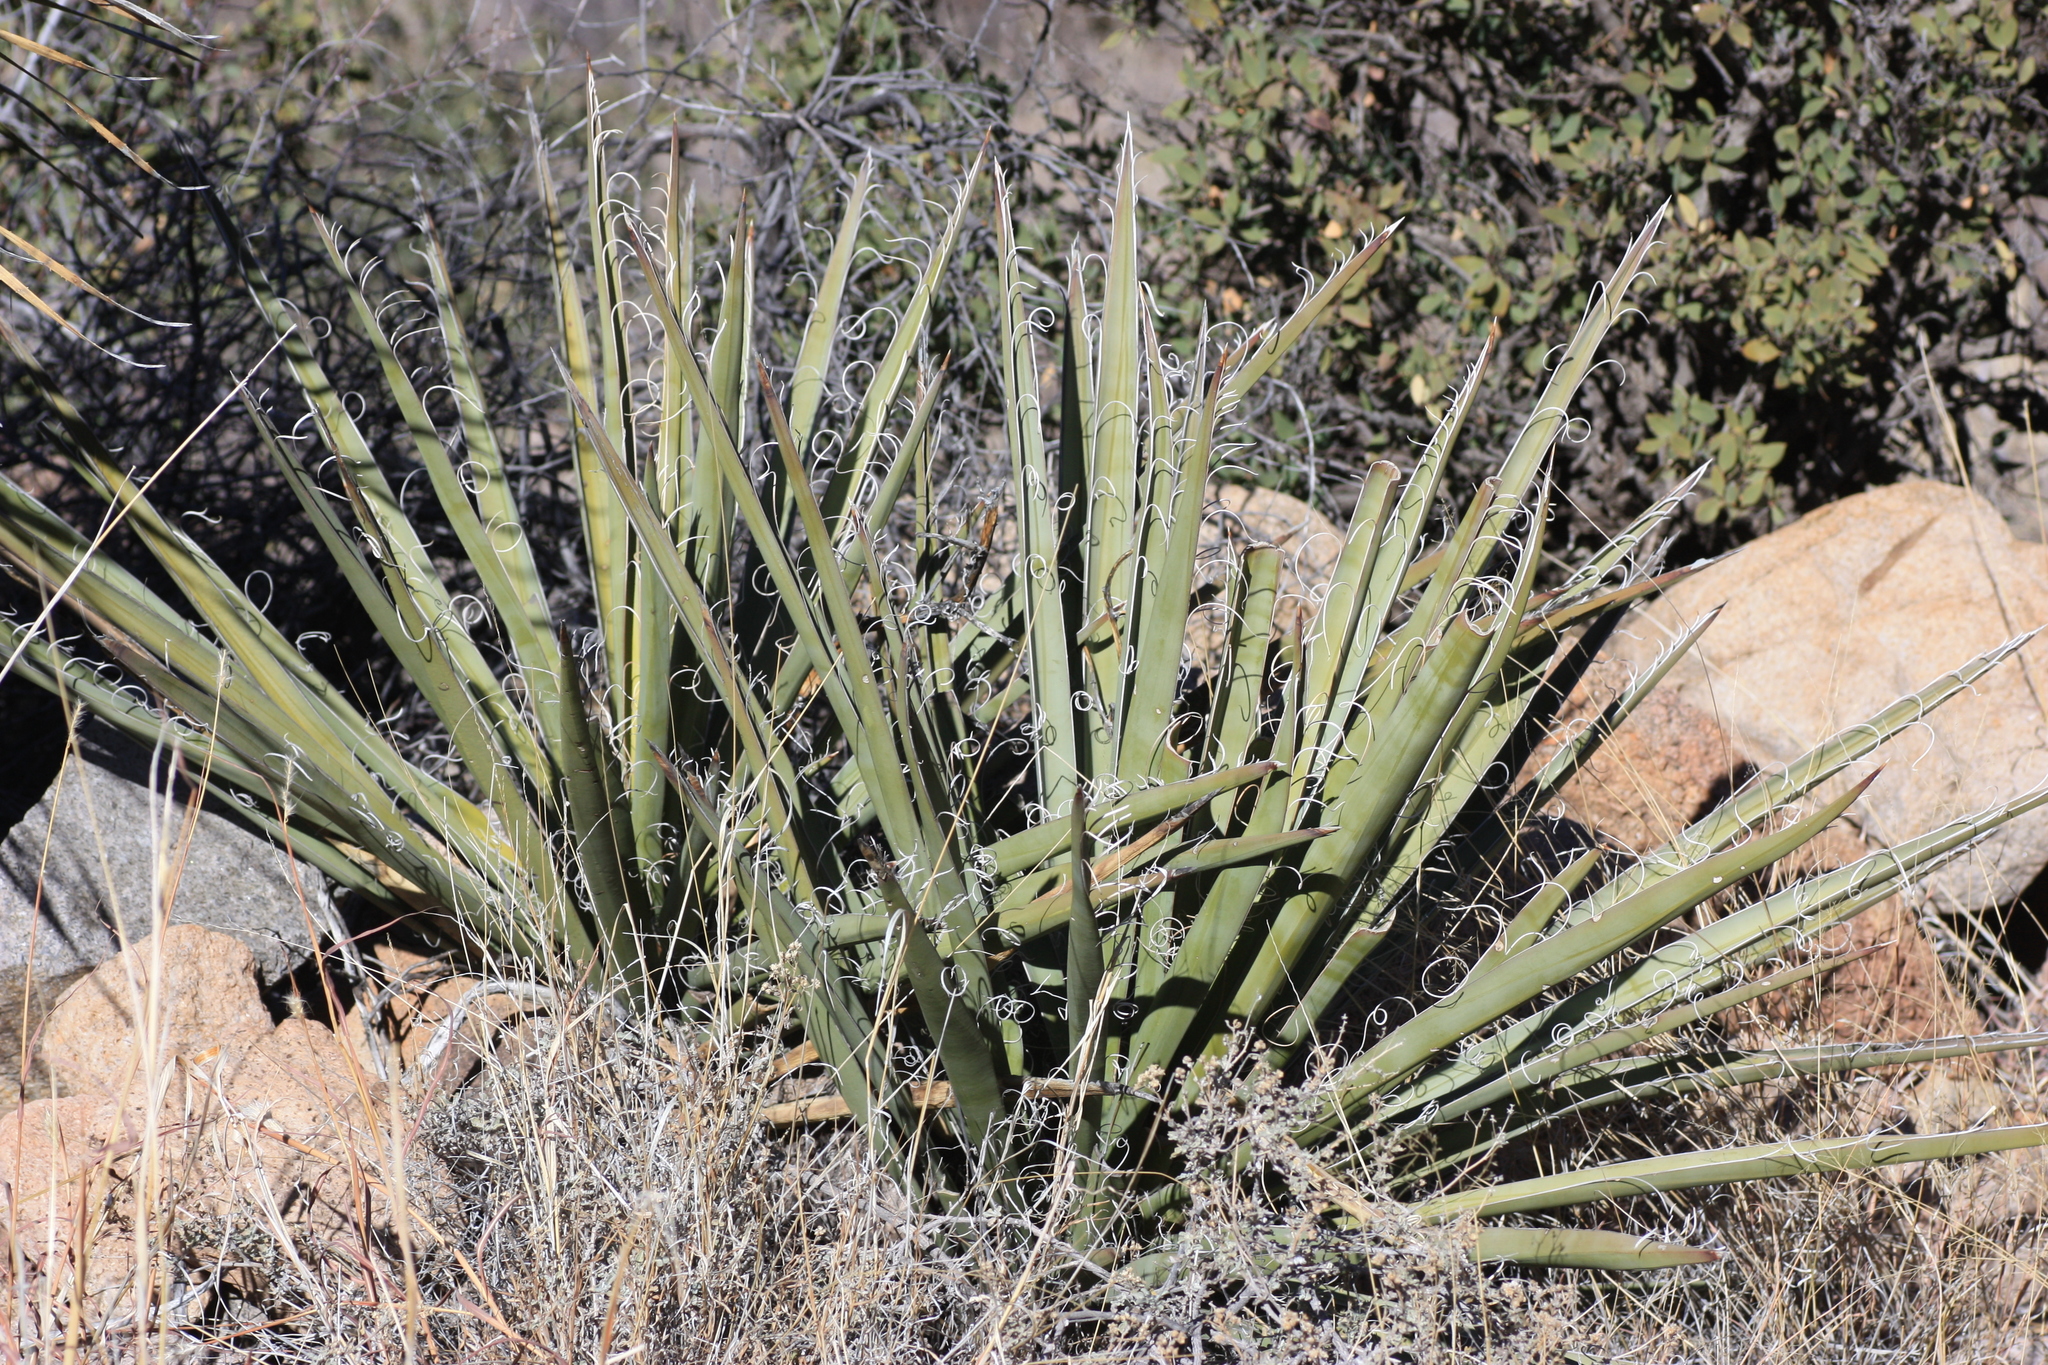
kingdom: Plantae
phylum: Tracheophyta
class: Liliopsida
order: Asparagales
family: Asparagaceae
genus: Yucca
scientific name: Yucca baccata
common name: Banana yucca
